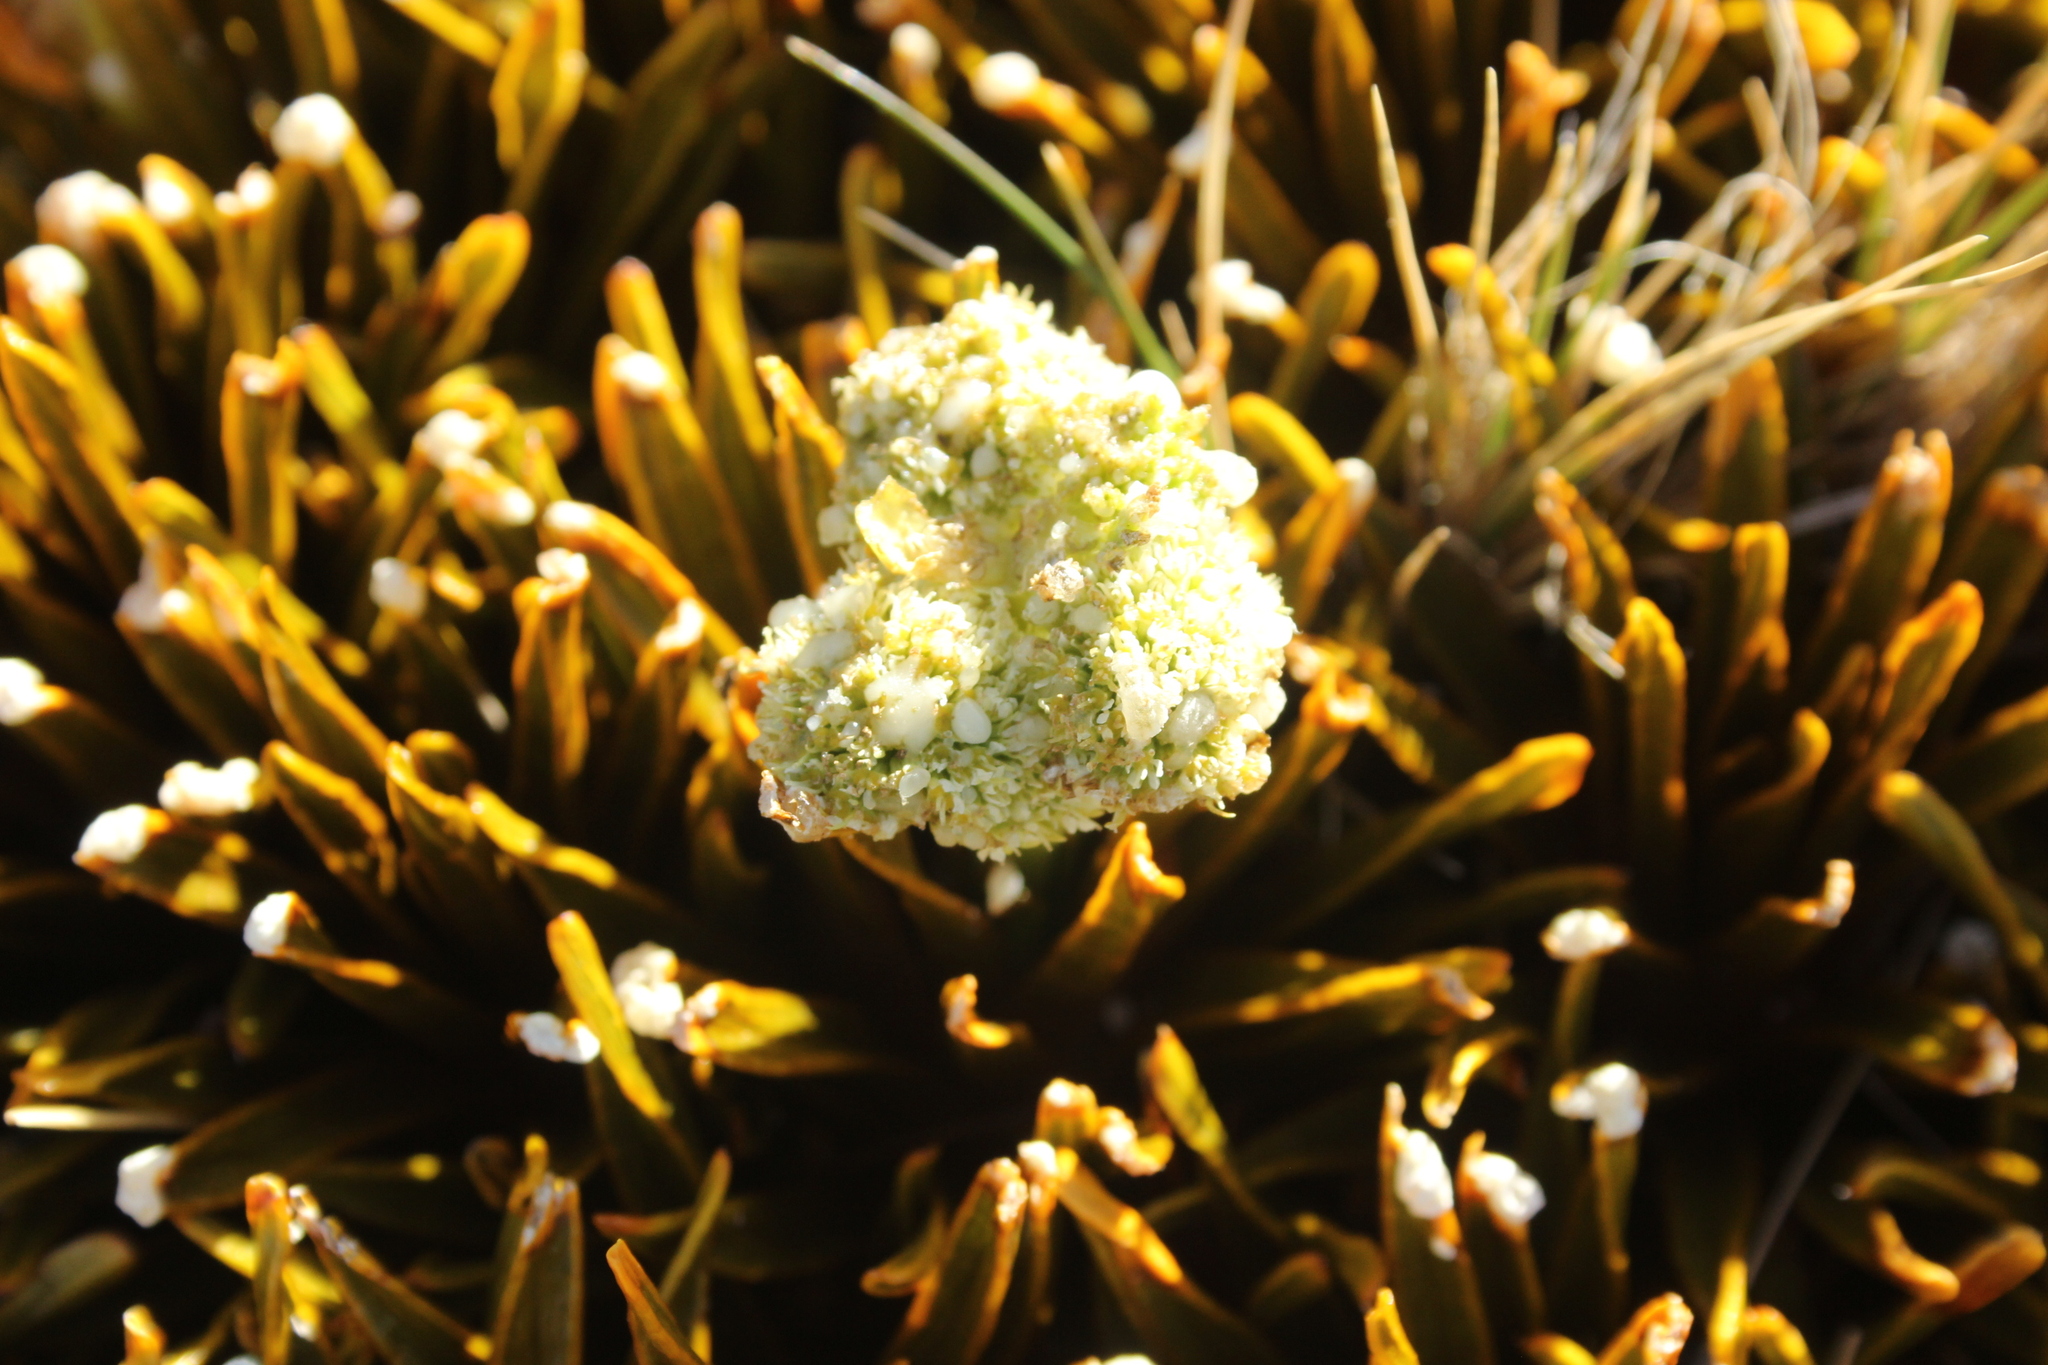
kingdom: Plantae
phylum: Tracheophyta
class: Magnoliopsida
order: Apiales
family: Apiaceae
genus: Aciphylla
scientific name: Aciphylla simplex
